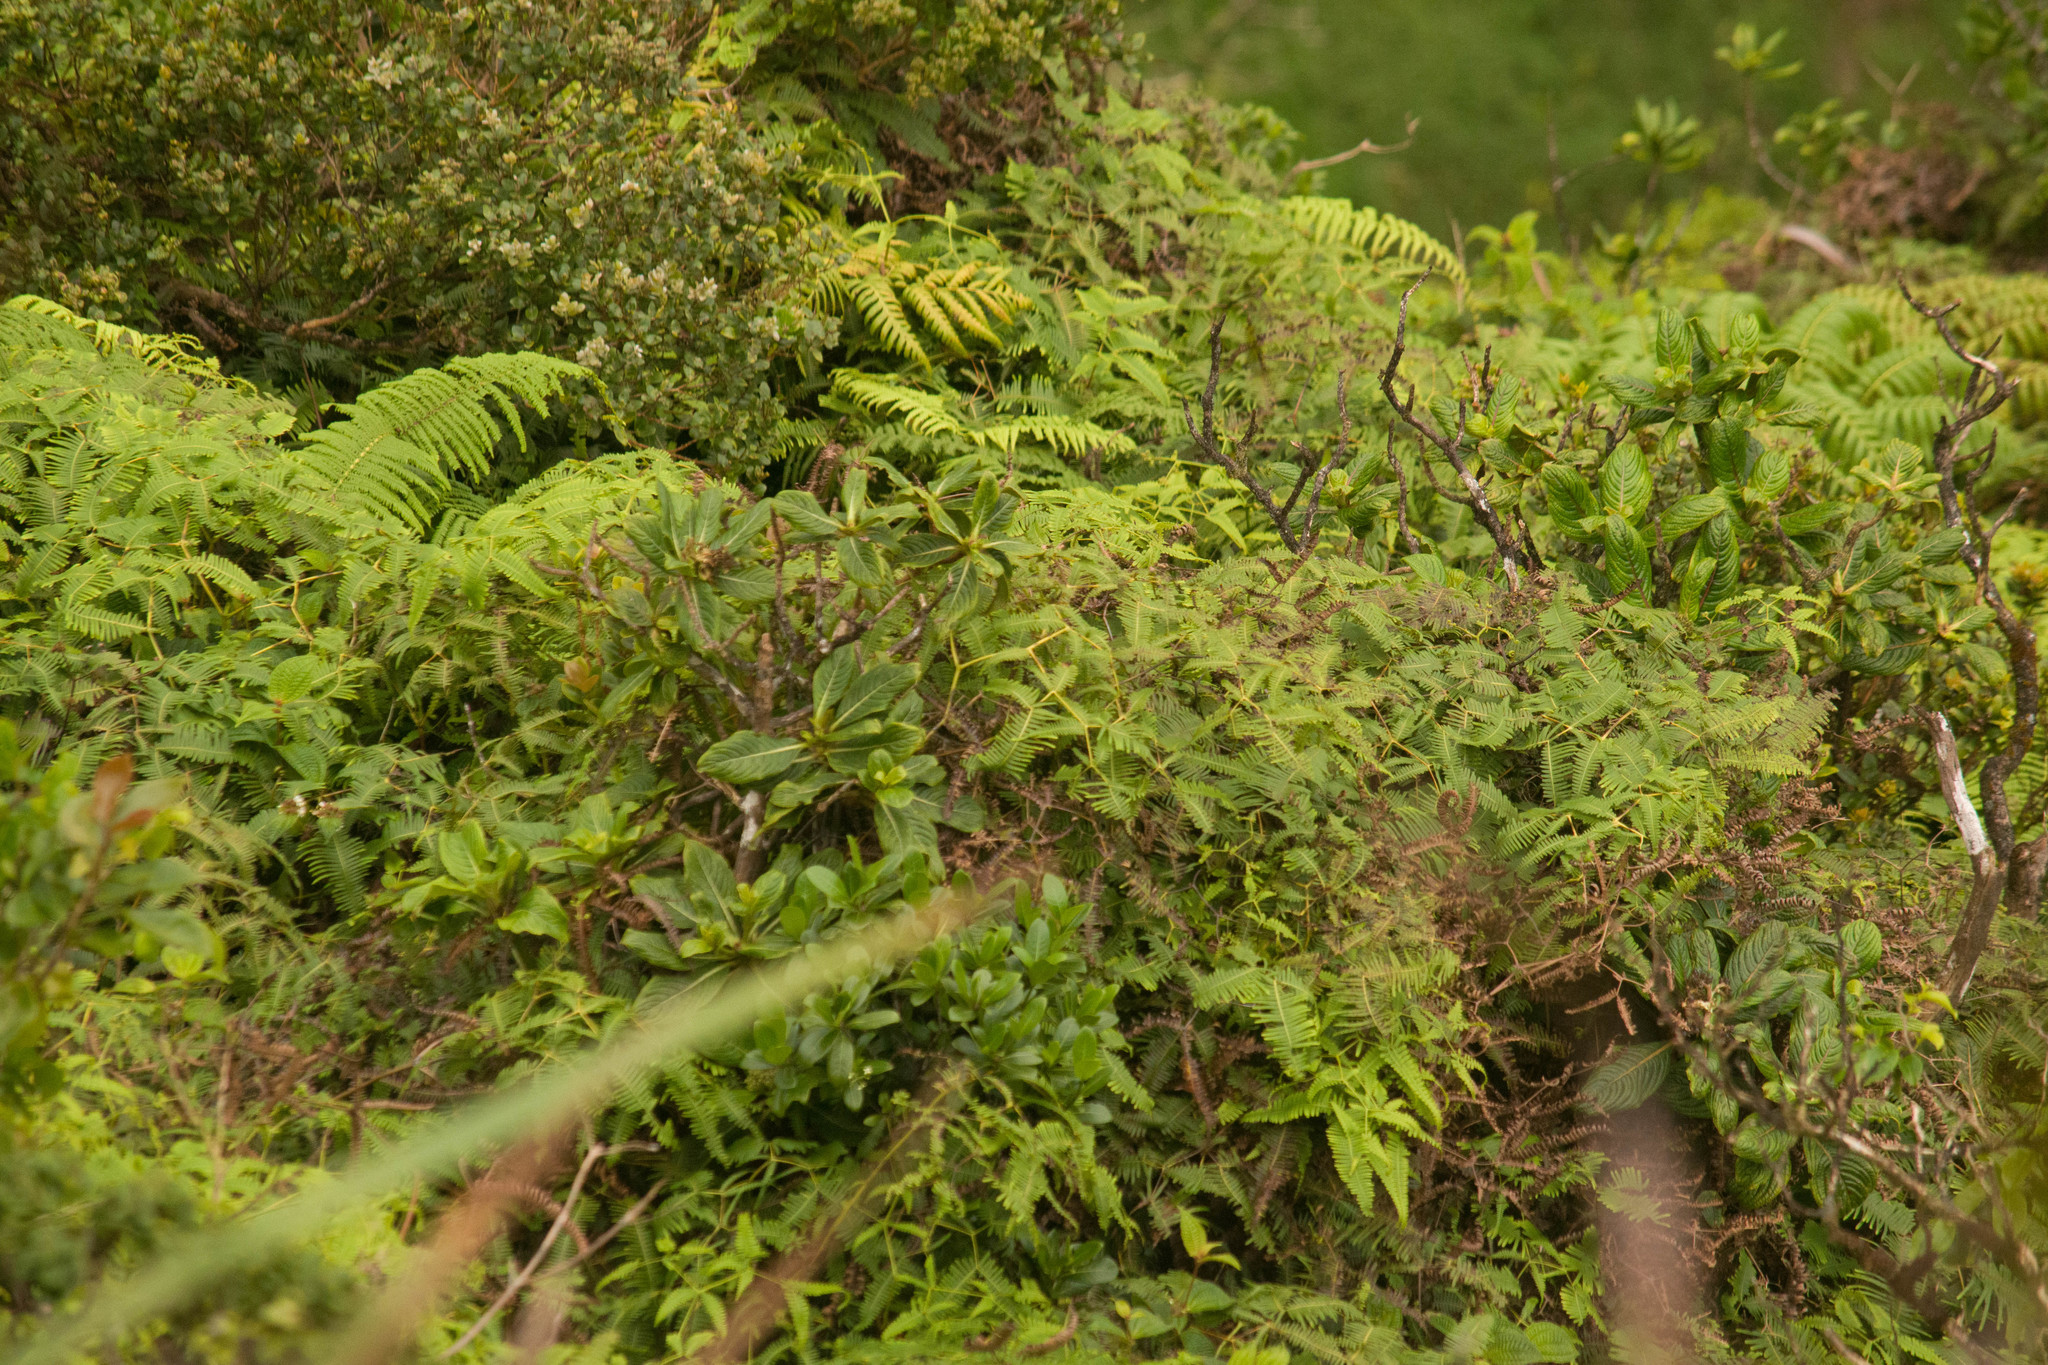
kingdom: Plantae
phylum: Tracheophyta
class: Magnoliopsida
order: Cornales
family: Hydrangeaceae
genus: Hydrangea
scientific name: Hydrangea arguta
